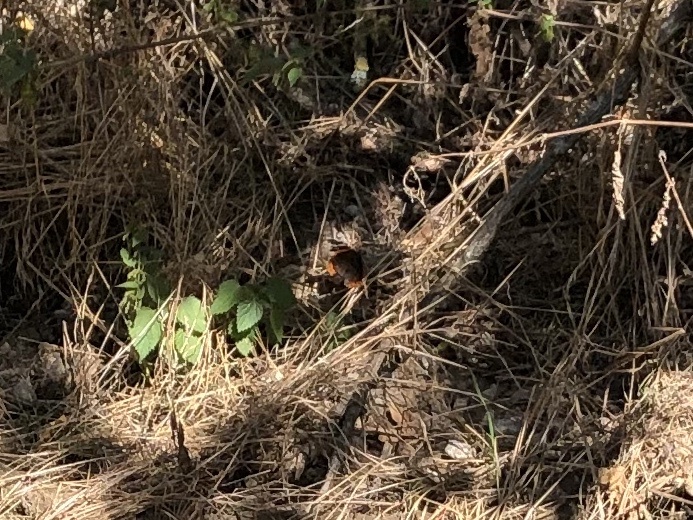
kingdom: Animalia
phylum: Arthropoda
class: Insecta
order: Lepidoptera
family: Nymphalidae
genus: Vanessa
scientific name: Vanessa atalanta
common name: Red admiral
